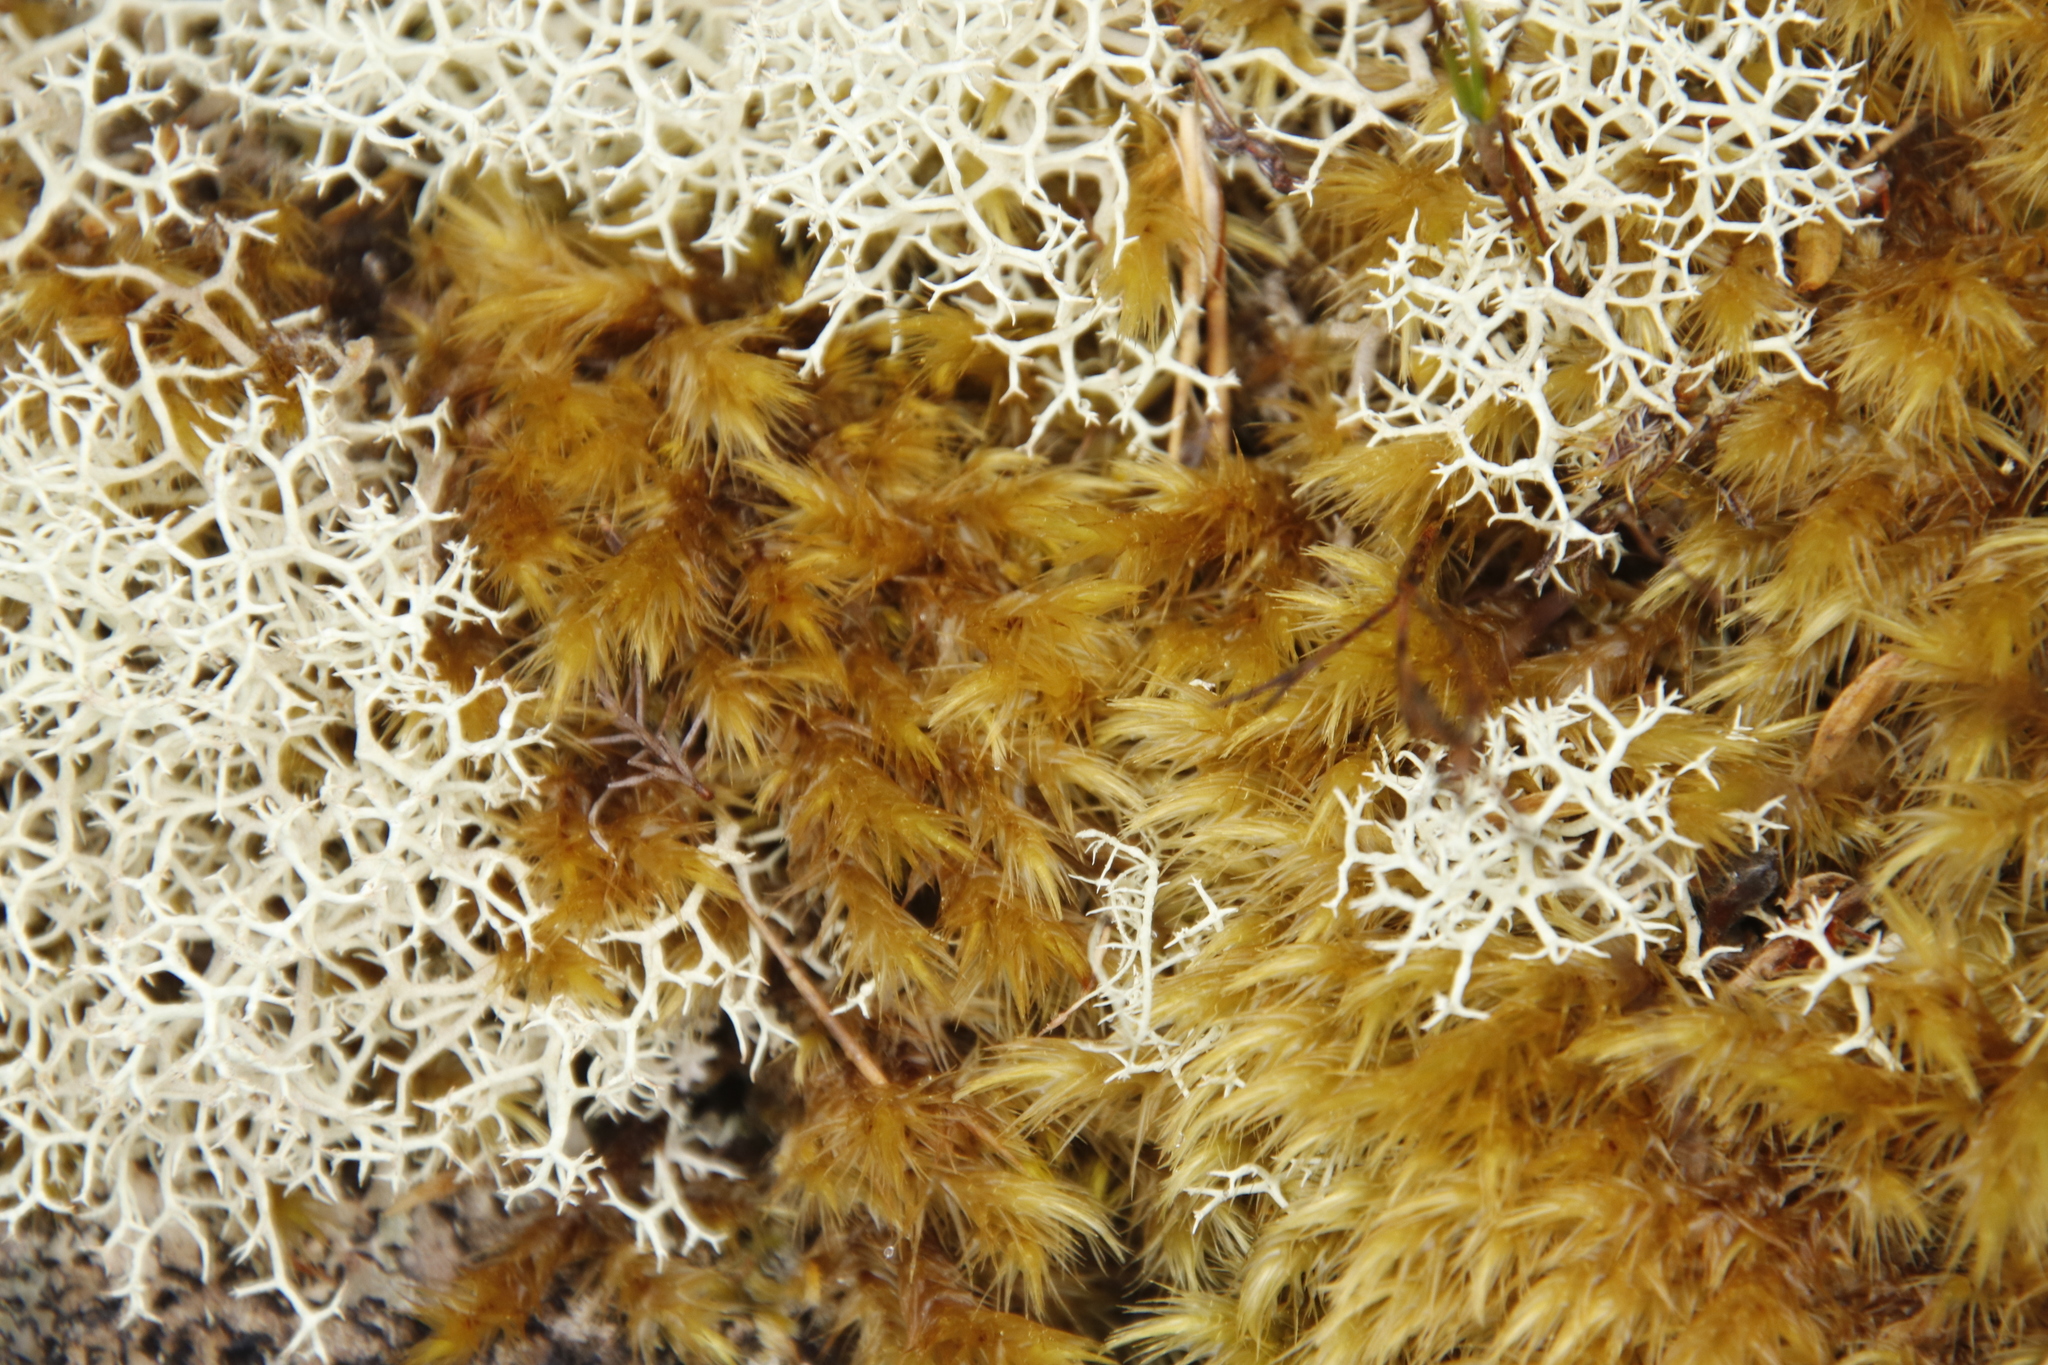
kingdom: Plantae
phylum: Bryophyta
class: Bryopsida
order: Dicranales
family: Dicranaceae
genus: Dicranoloma
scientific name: Dicranoloma billardieri
